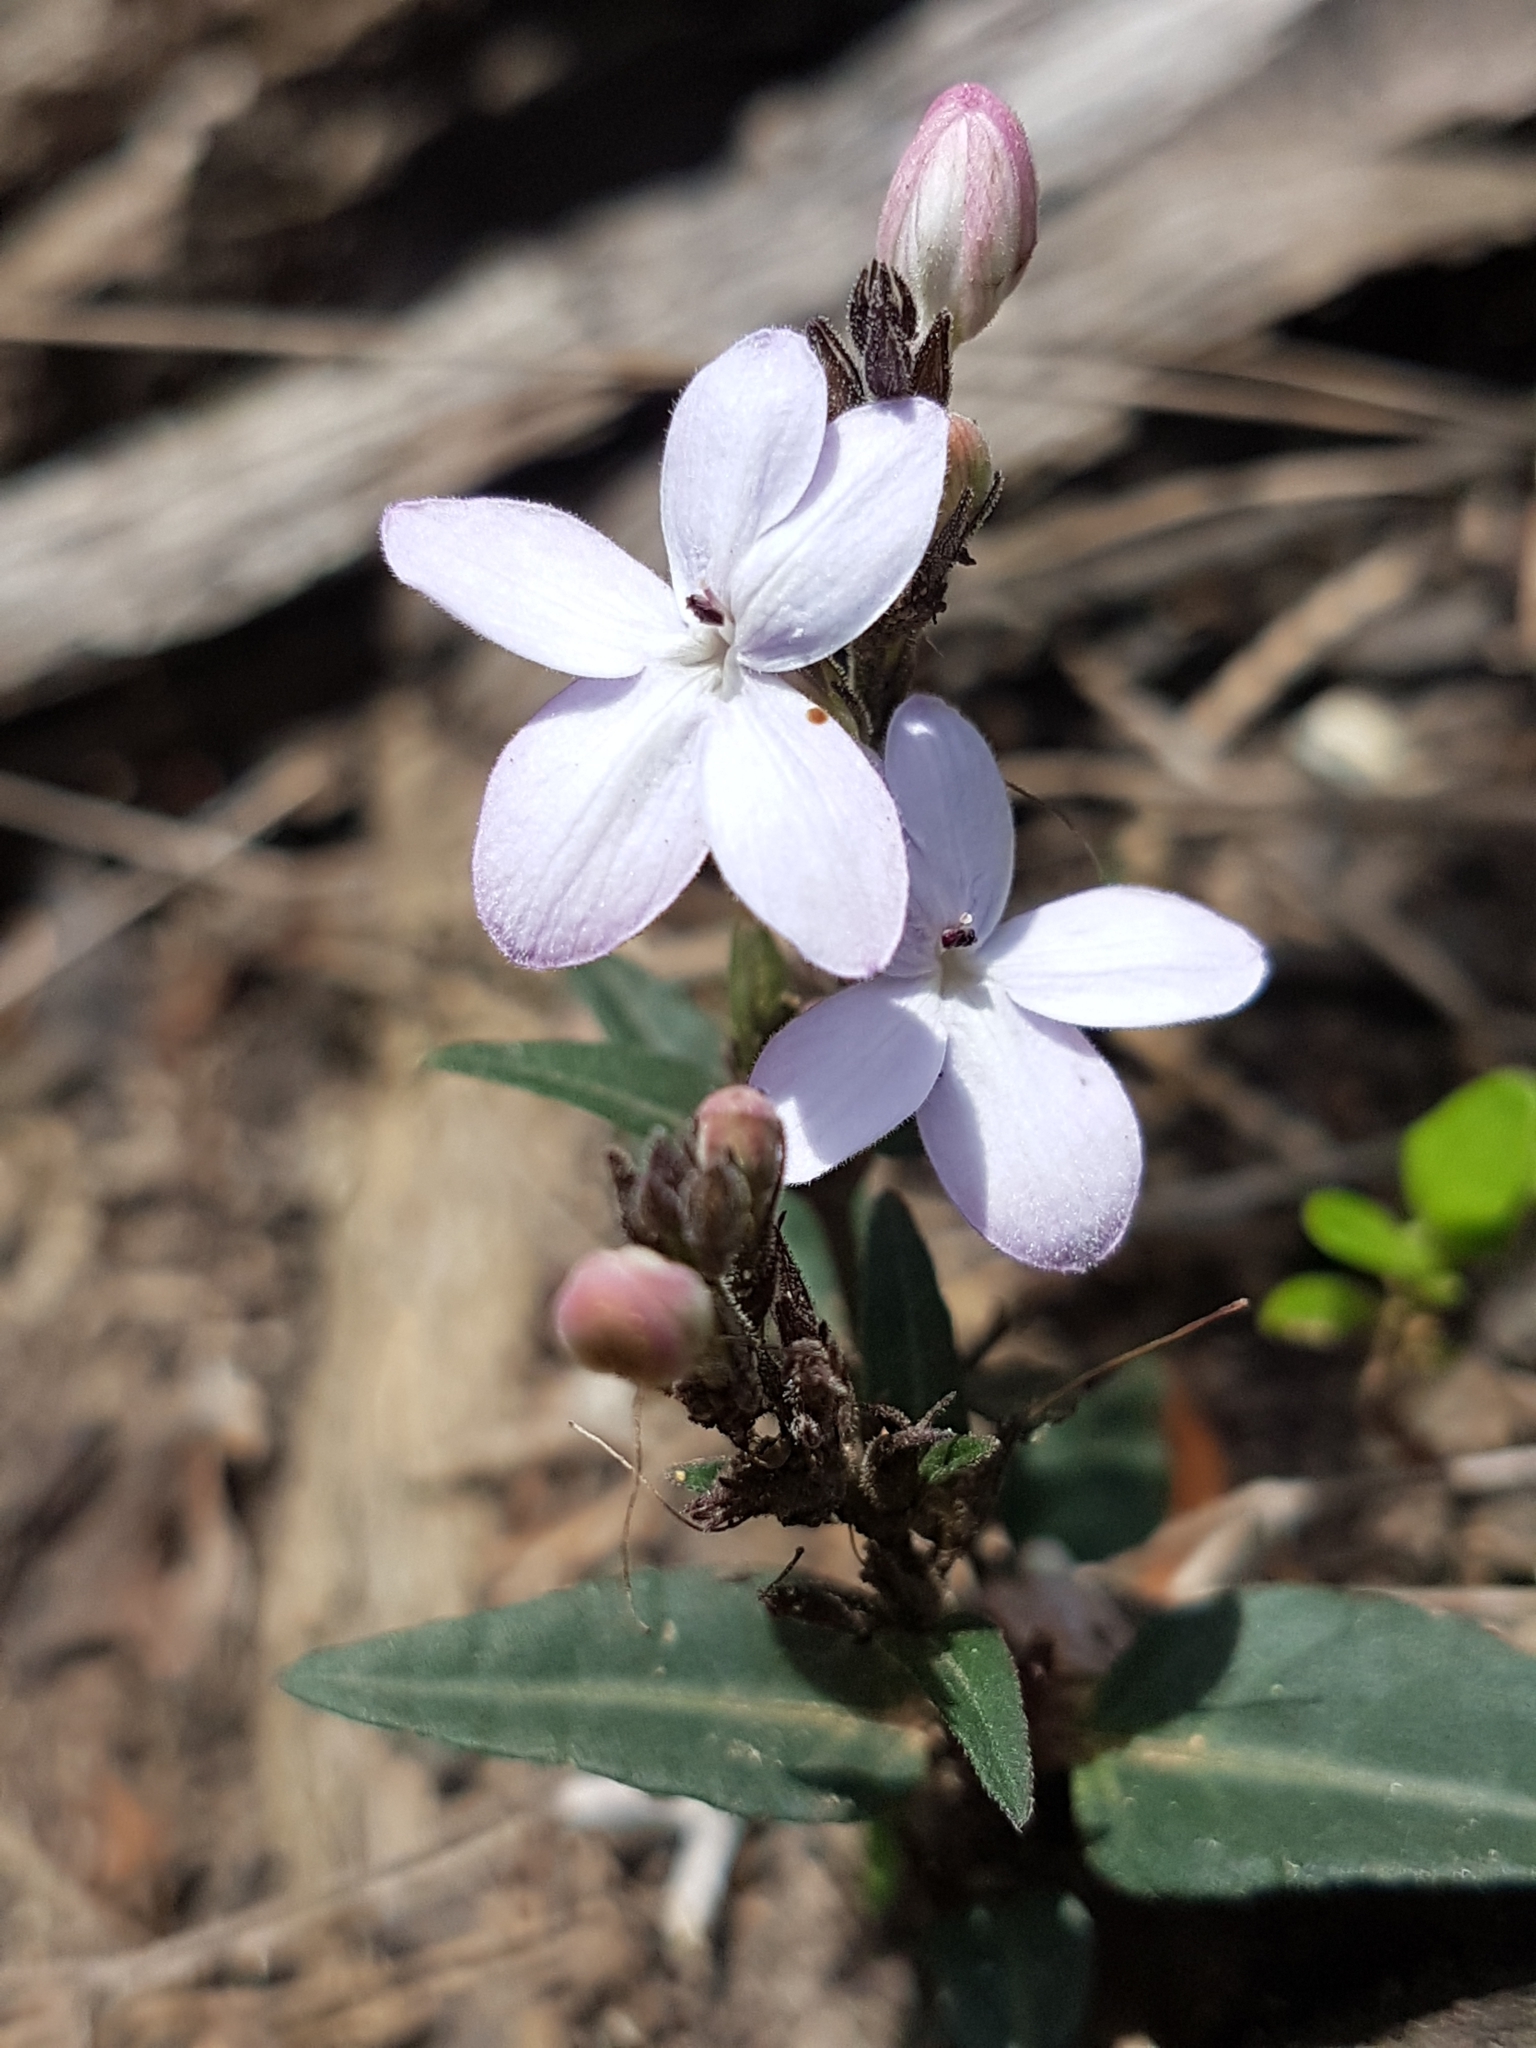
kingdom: Plantae
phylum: Tracheophyta
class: Magnoliopsida
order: Lamiales
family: Acanthaceae
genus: Pseuderanthemum
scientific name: Pseuderanthemum variabile
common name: Night and afternoon
